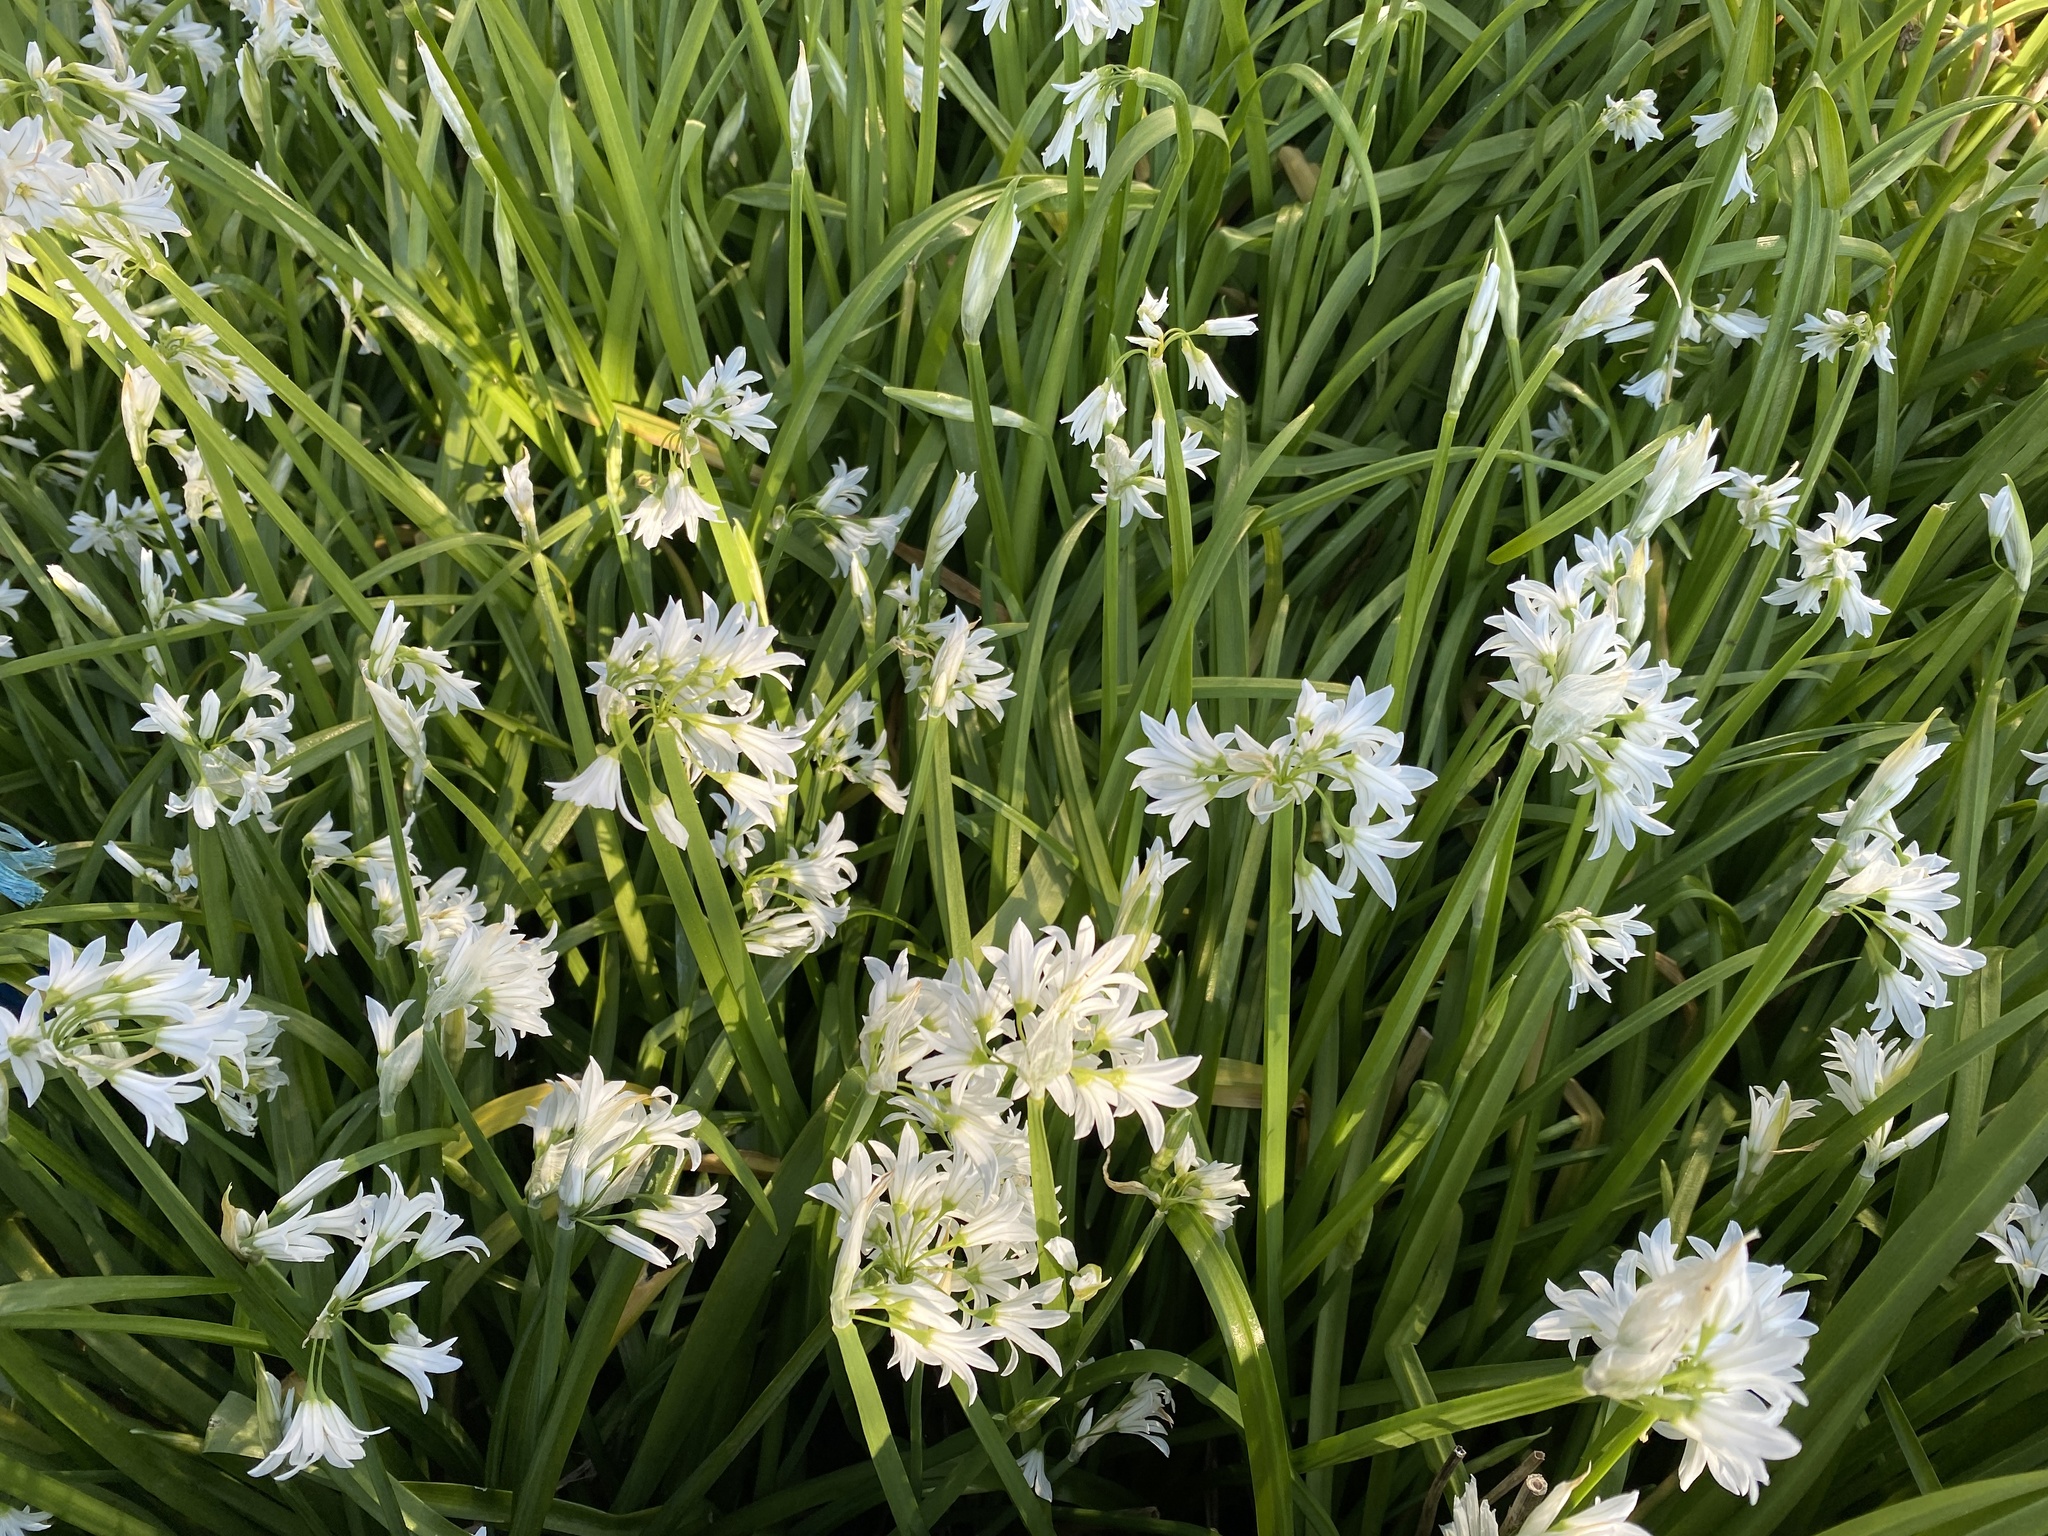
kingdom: Plantae
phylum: Tracheophyta
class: Liliopsida
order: Asparagales
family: Amaryllidaceae
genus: Allium
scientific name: Allium triquetrum
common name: Three-cornered garlic
